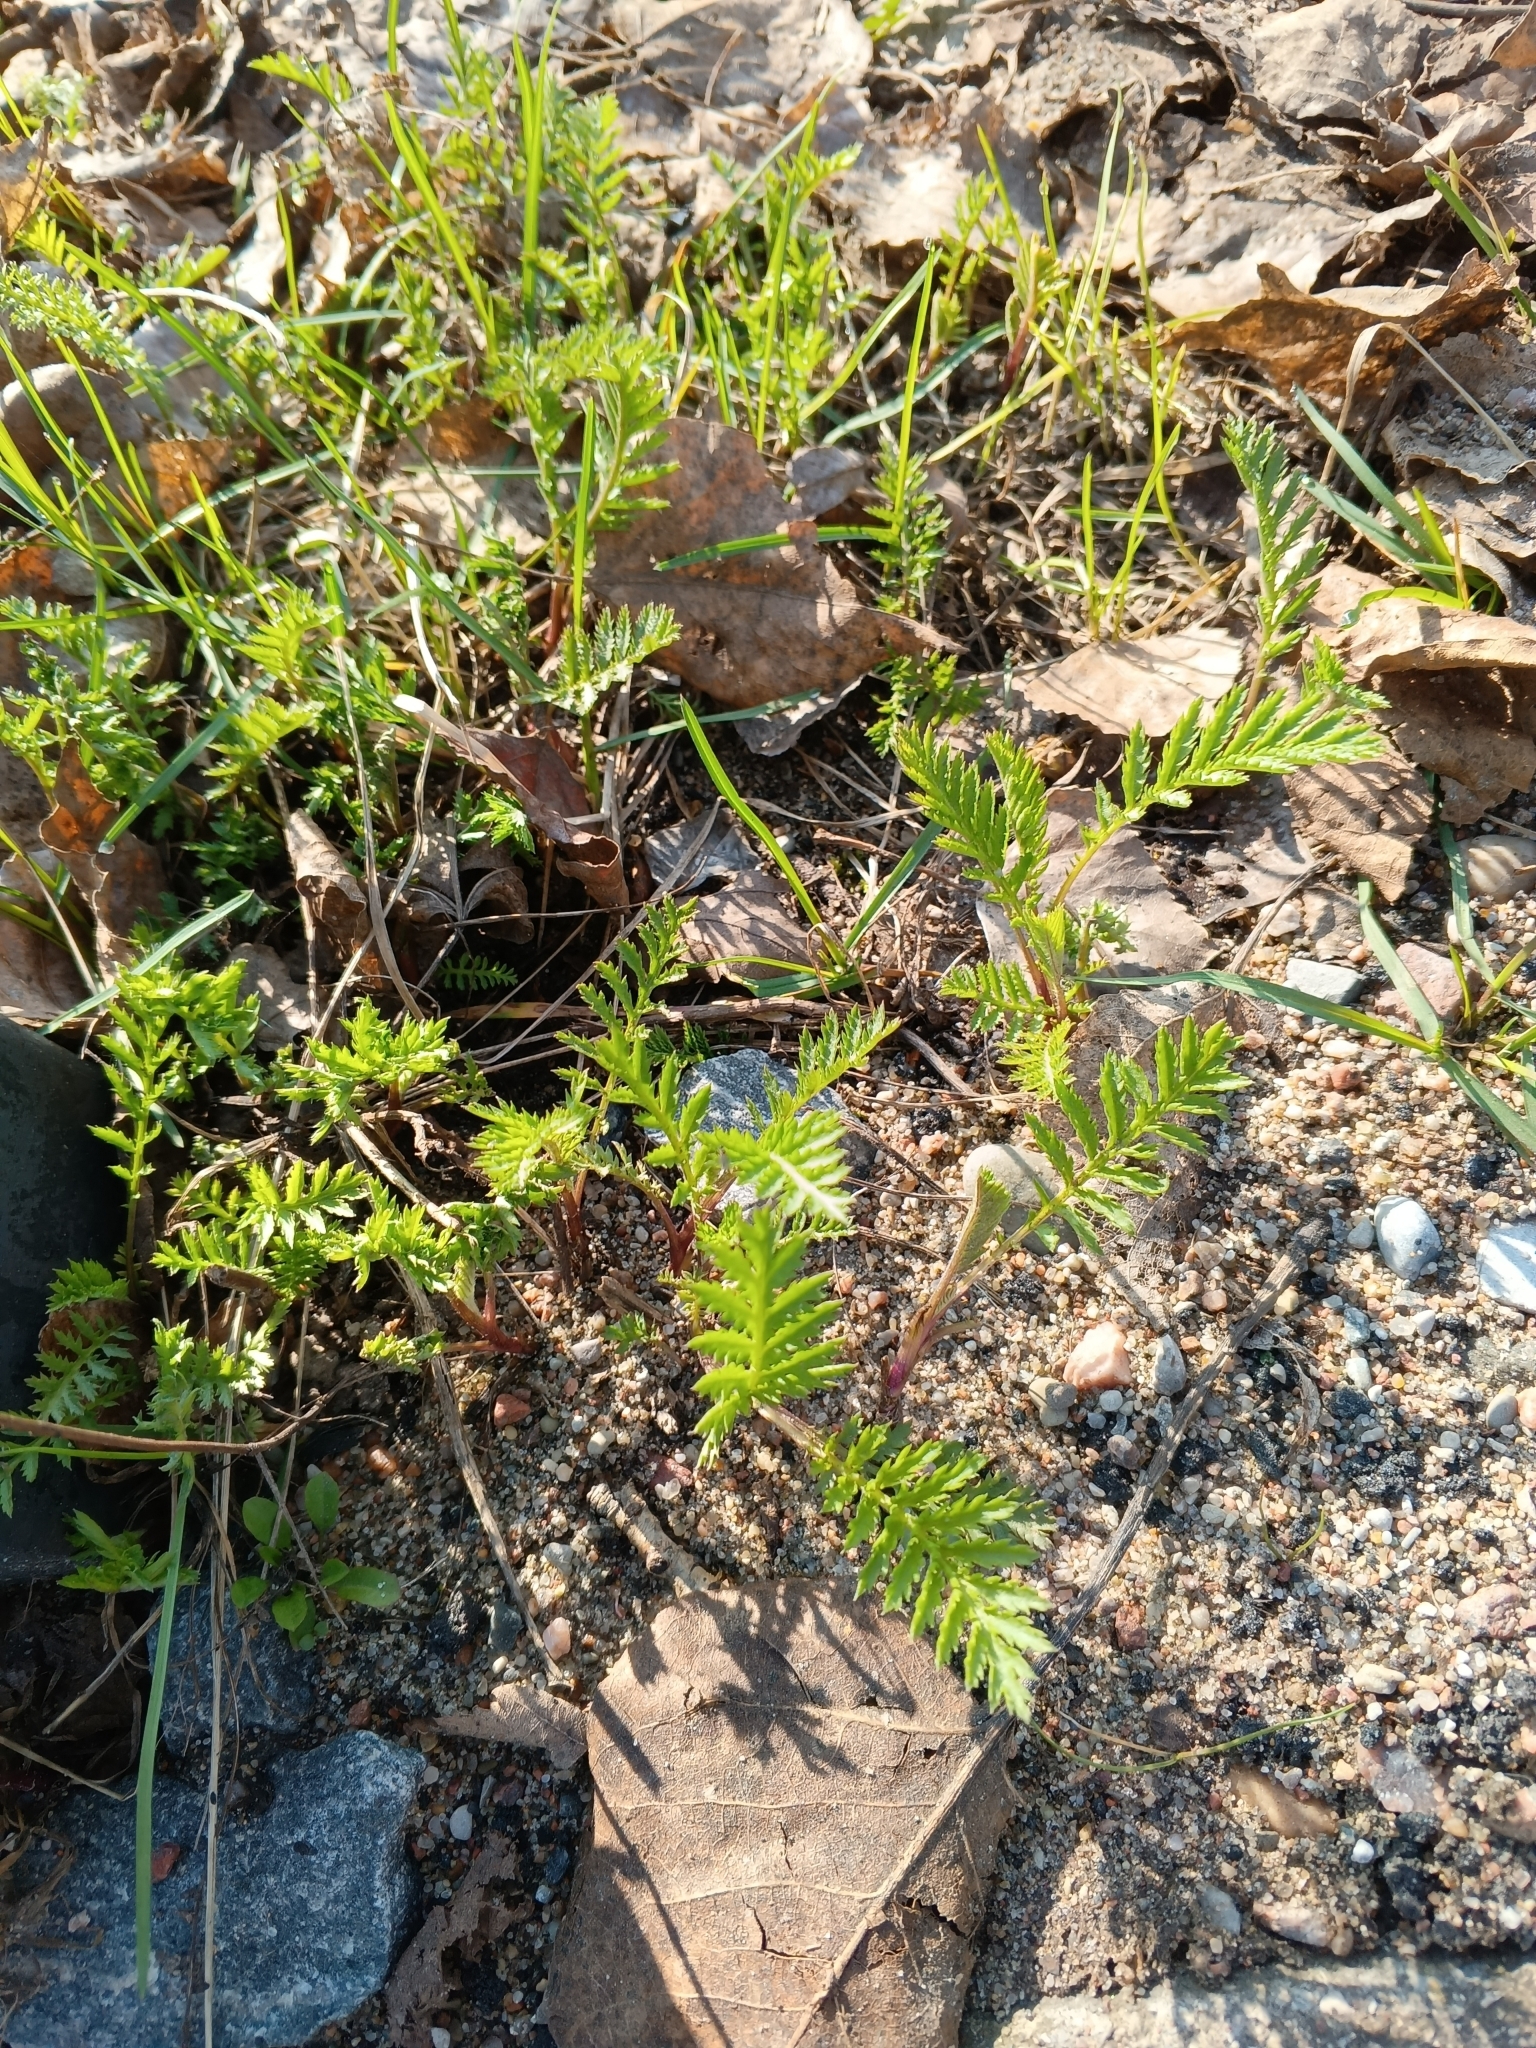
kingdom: Plantae
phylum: Tracheophyta
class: Magnoliopsida
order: Asterales
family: Asteraceae
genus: Tanacetum
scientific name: Tanacetum vulgare
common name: Common tansy
